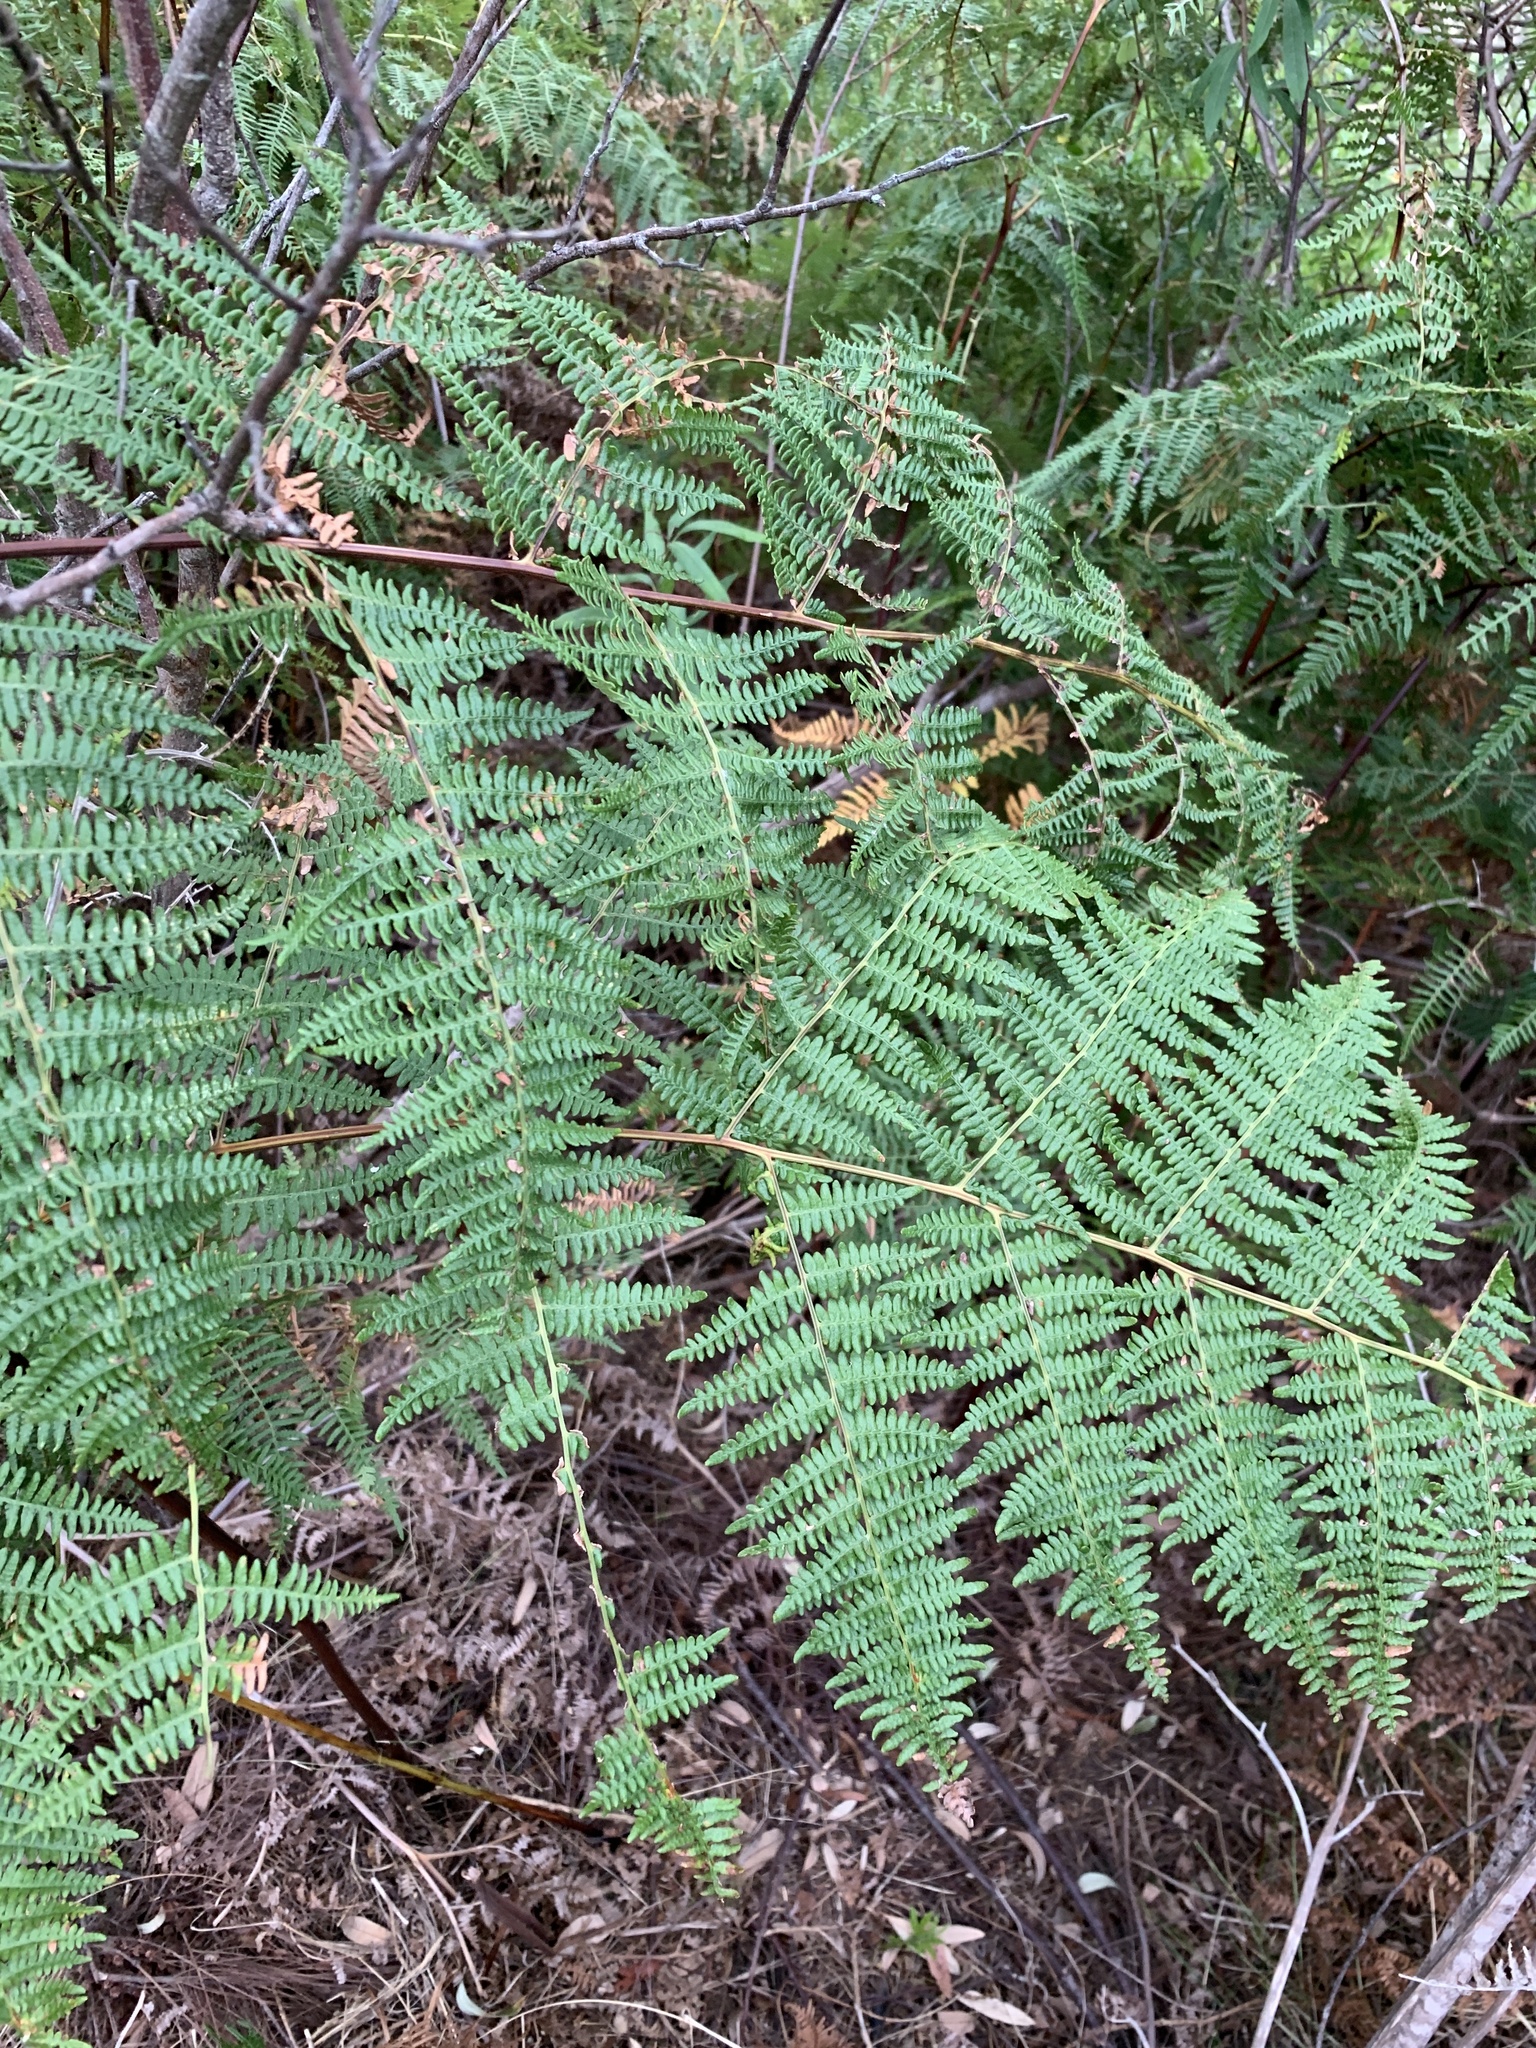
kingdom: Plantae
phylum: Tracheophyta
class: Polypodiopsida
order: Polypodiales
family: Dennstaedtiaceae
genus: Pteridium
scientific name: Pteridium aquilinum
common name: Bracken
